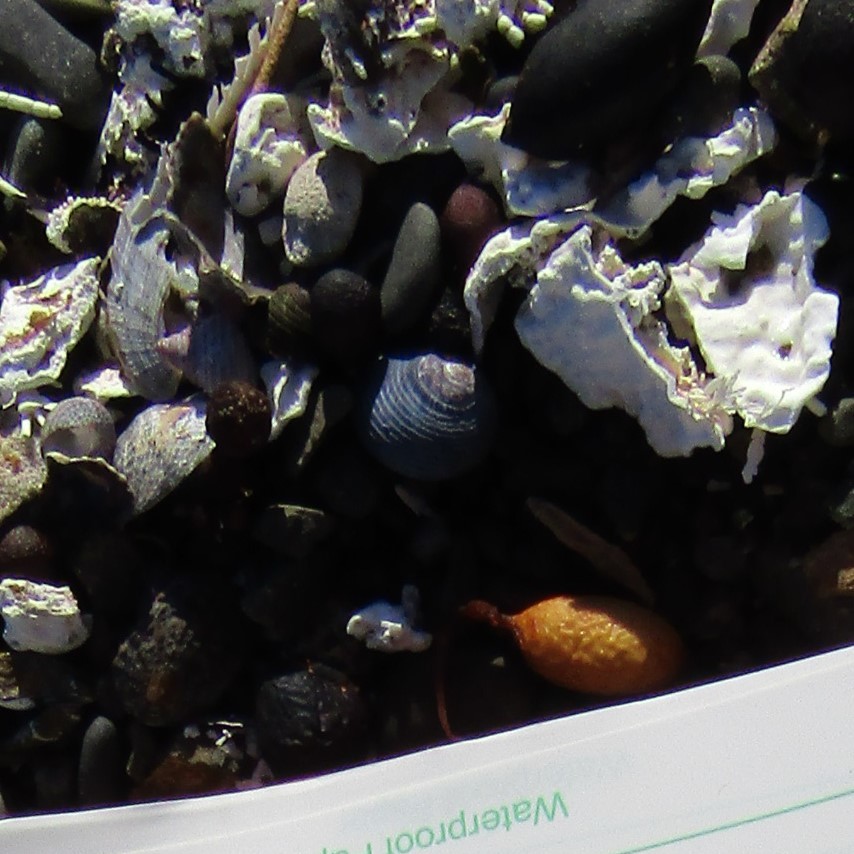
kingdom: Animalia
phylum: Mollusca
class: Gastropoda
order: Trochida
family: Trochidae
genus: Diloma
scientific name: Diloma nigerrimum
